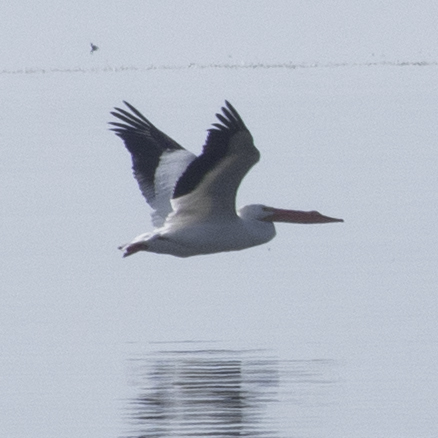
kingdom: Animalia
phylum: Chordata
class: Aves
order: Pelecaniformes
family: Pelecanidae
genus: Pelecanus
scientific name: Pelecanus erythrorhynchos
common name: American white pelican
